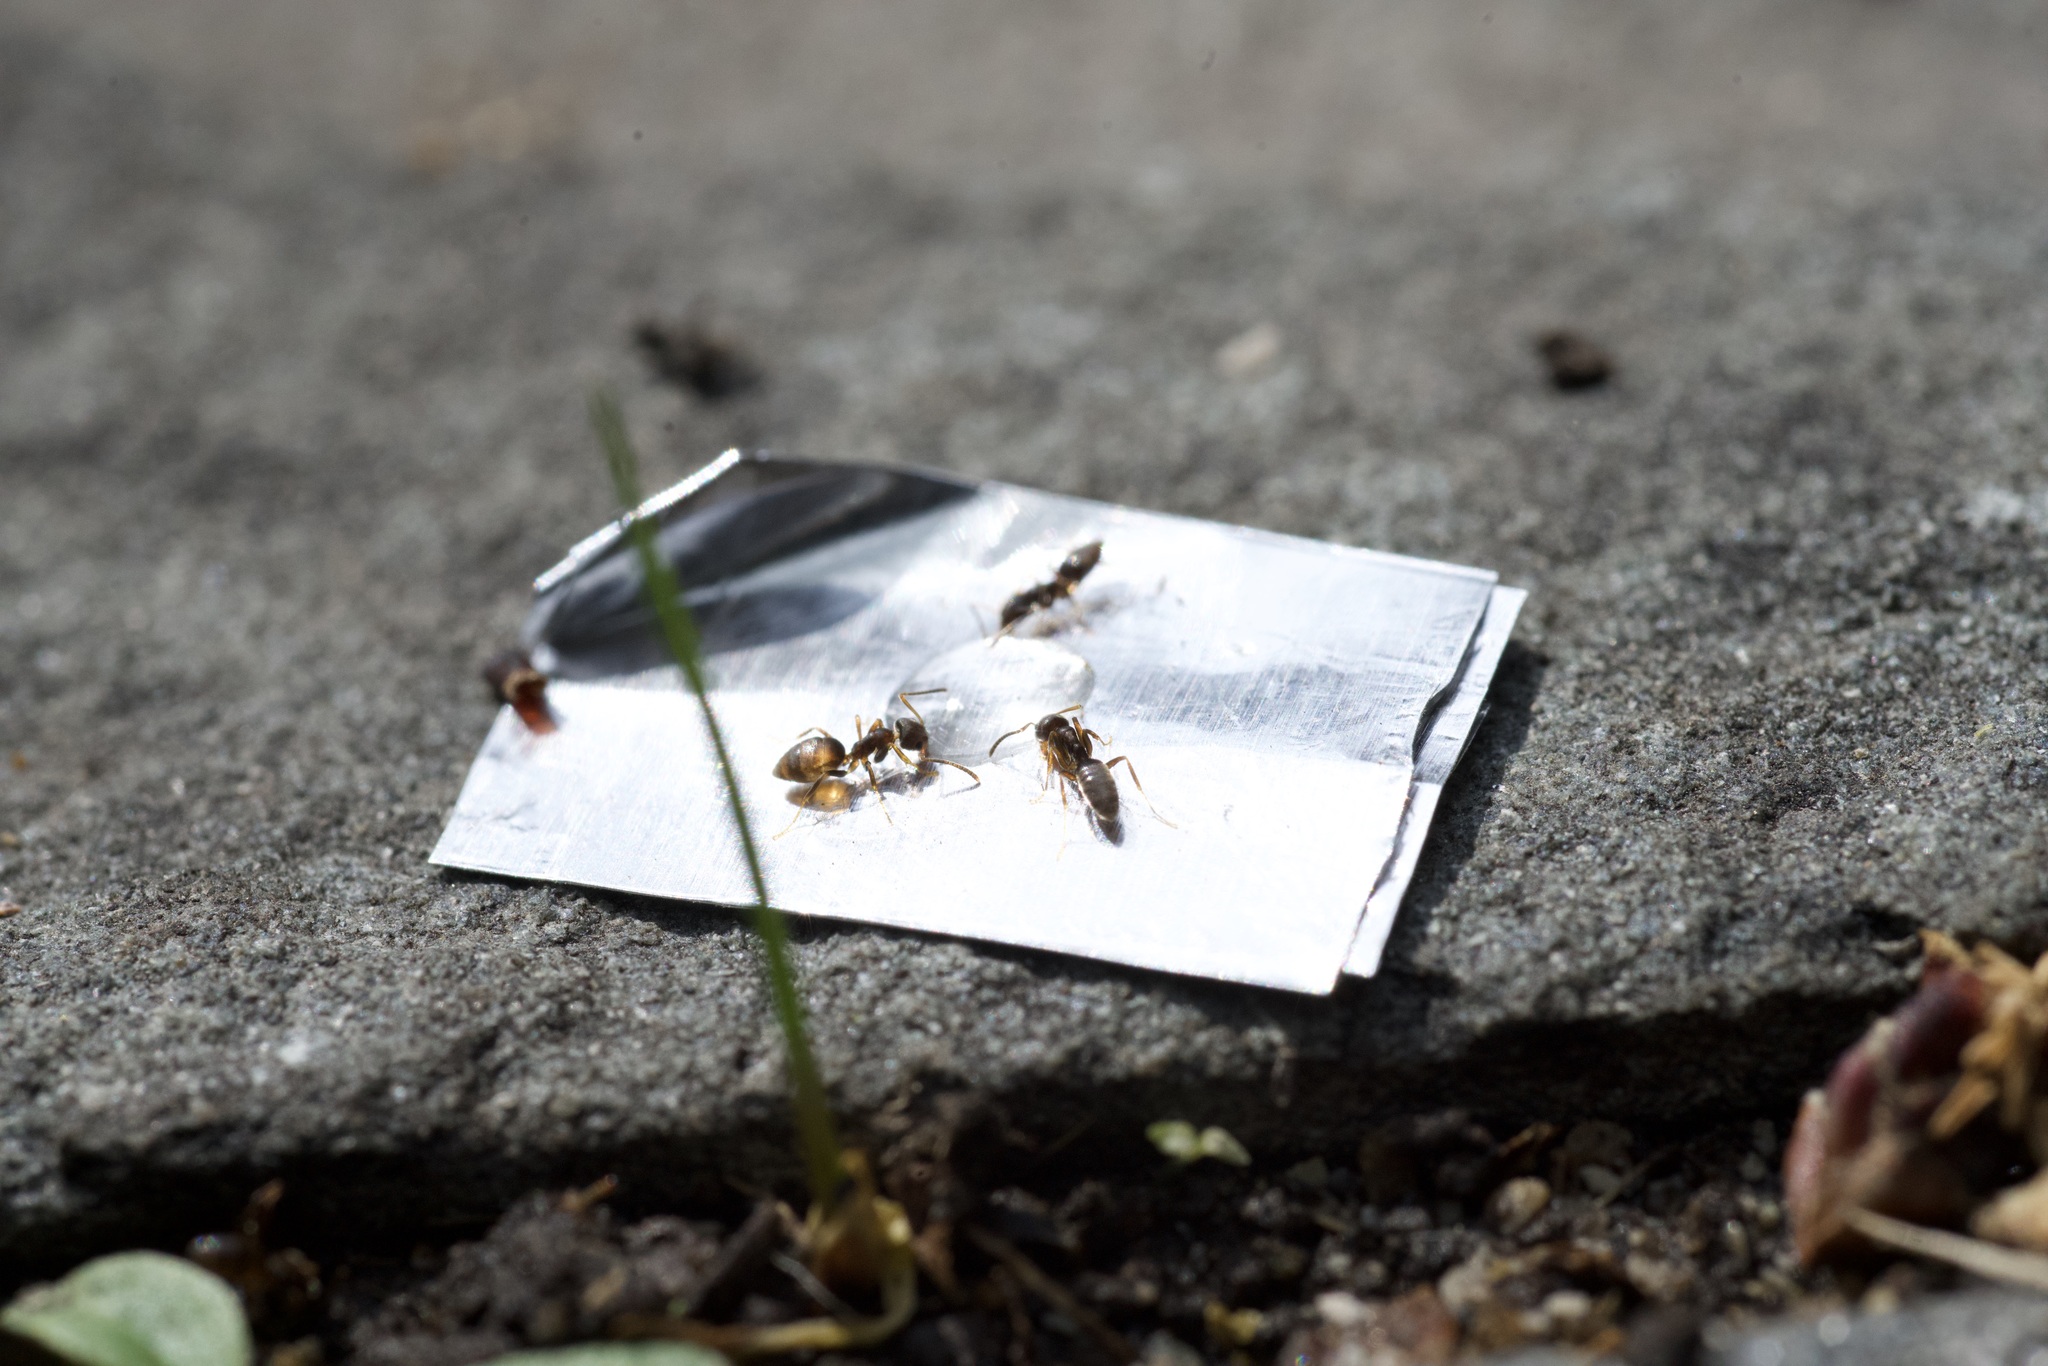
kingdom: Animalia
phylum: Arthropoda
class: Insecta
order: Hymenoptera
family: Formicidae
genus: Tapinoma
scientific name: Tapinoma sessile
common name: Odorous house ant
